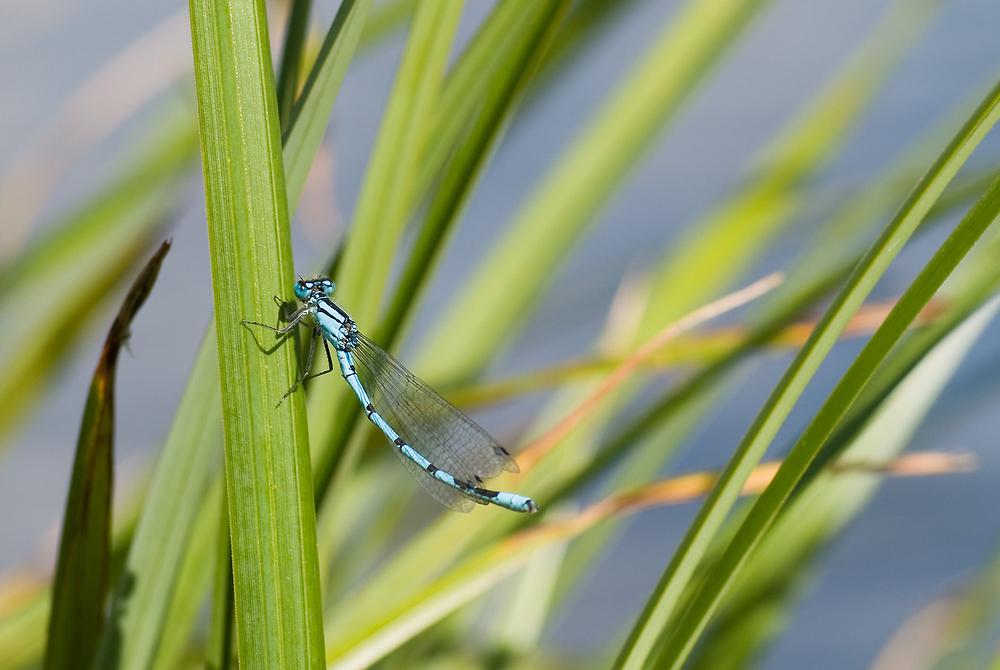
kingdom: Animalia
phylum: Arthropoda
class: Insecta
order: Odonata
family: Coenagrionidae
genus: Enallagma
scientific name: Enallagma cyathigerum
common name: Common blue damselfly
